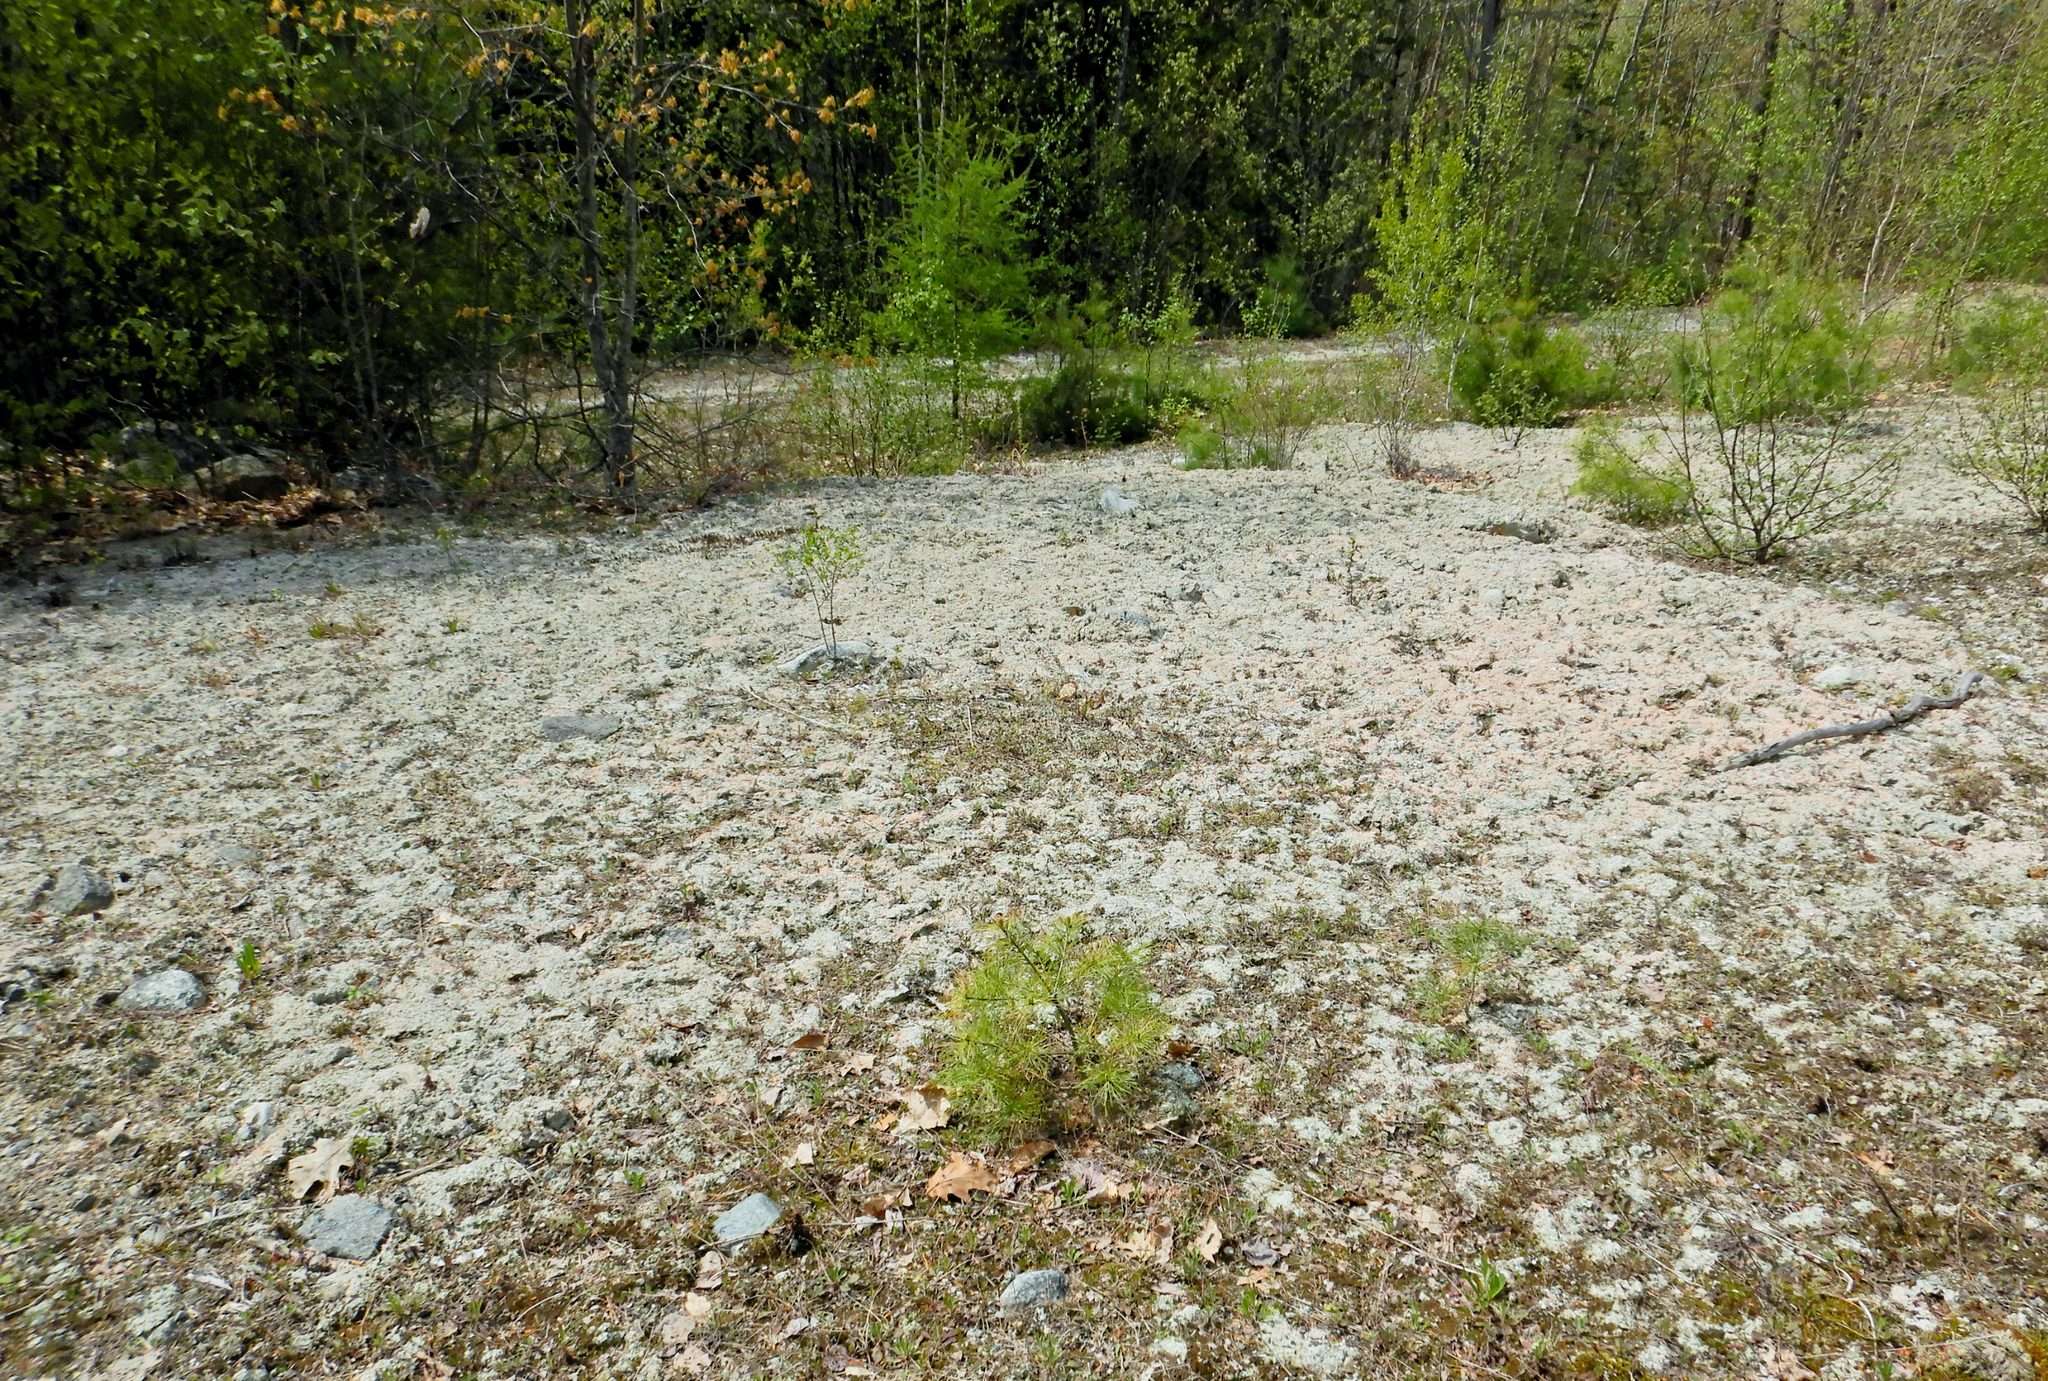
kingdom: Fungi
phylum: Ascomycota
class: Lecanoromycetes
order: Pertusariales
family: Icmadophilaceae
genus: Dibaeis
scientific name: Dibaeis baeomyces
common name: Pink earth lichen
